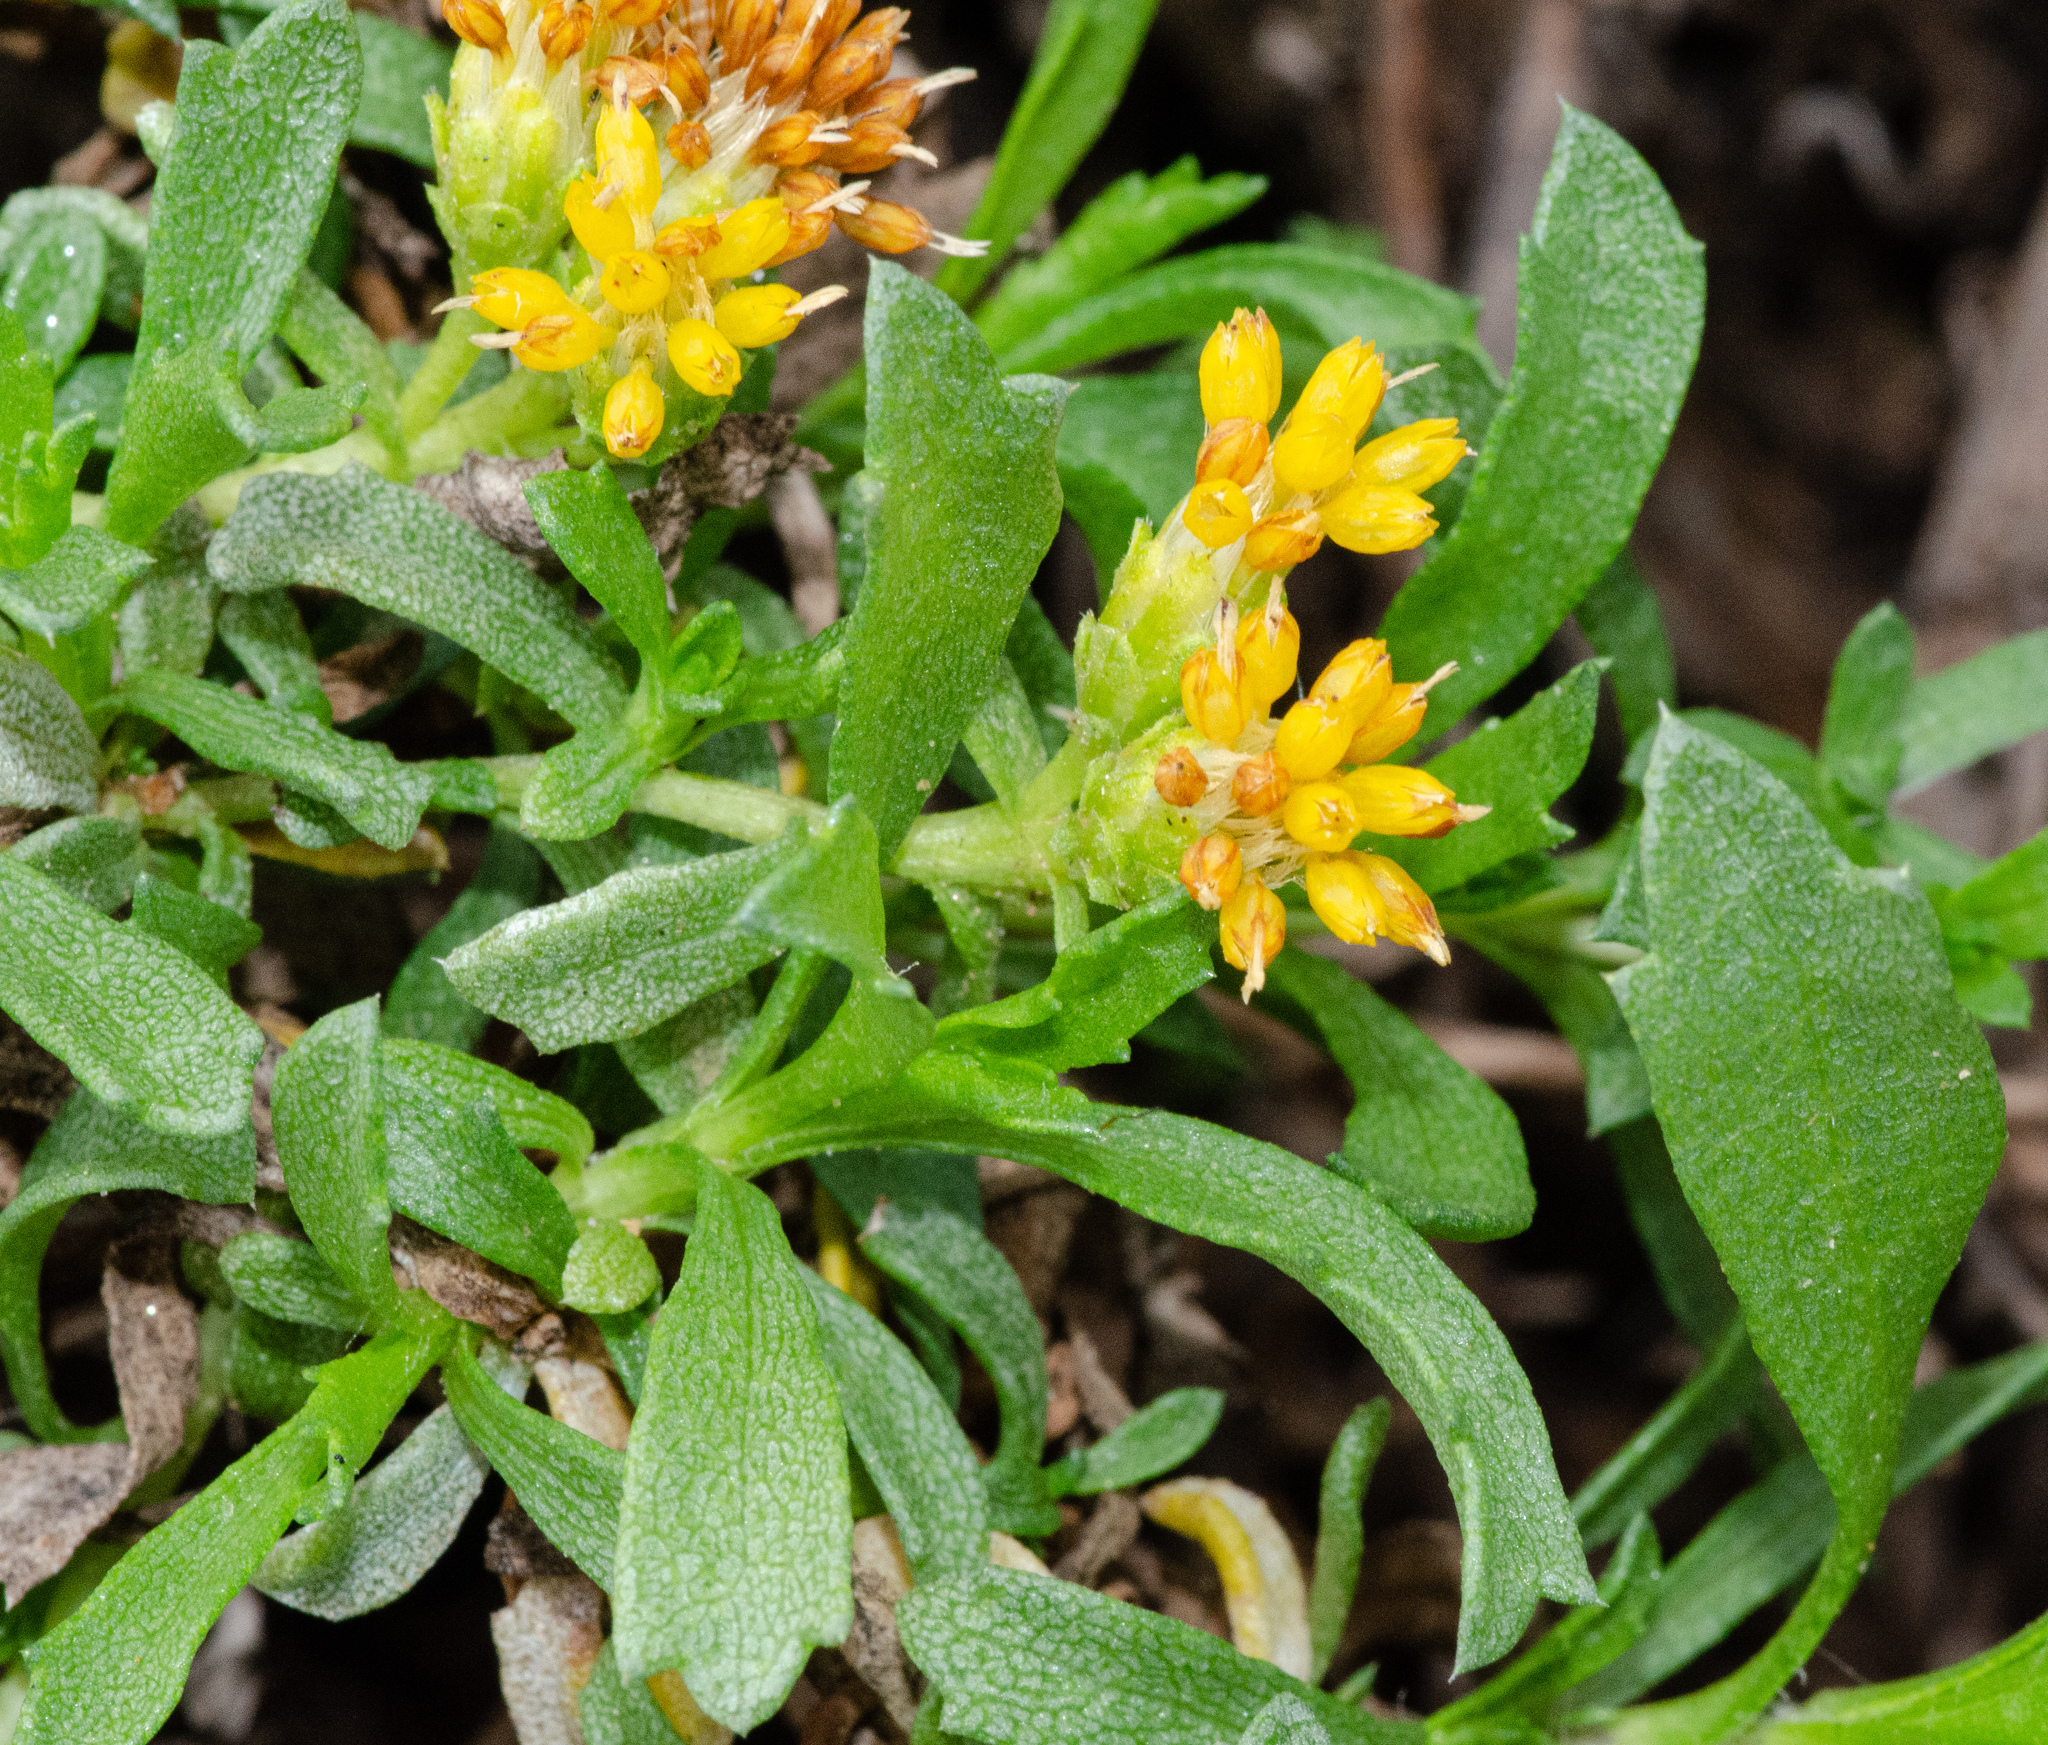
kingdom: Plantae
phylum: Tracheophyta
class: Magnoliopsida
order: Asterales
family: Asteraceae
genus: Isocoma
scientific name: Isocoma menziesii
